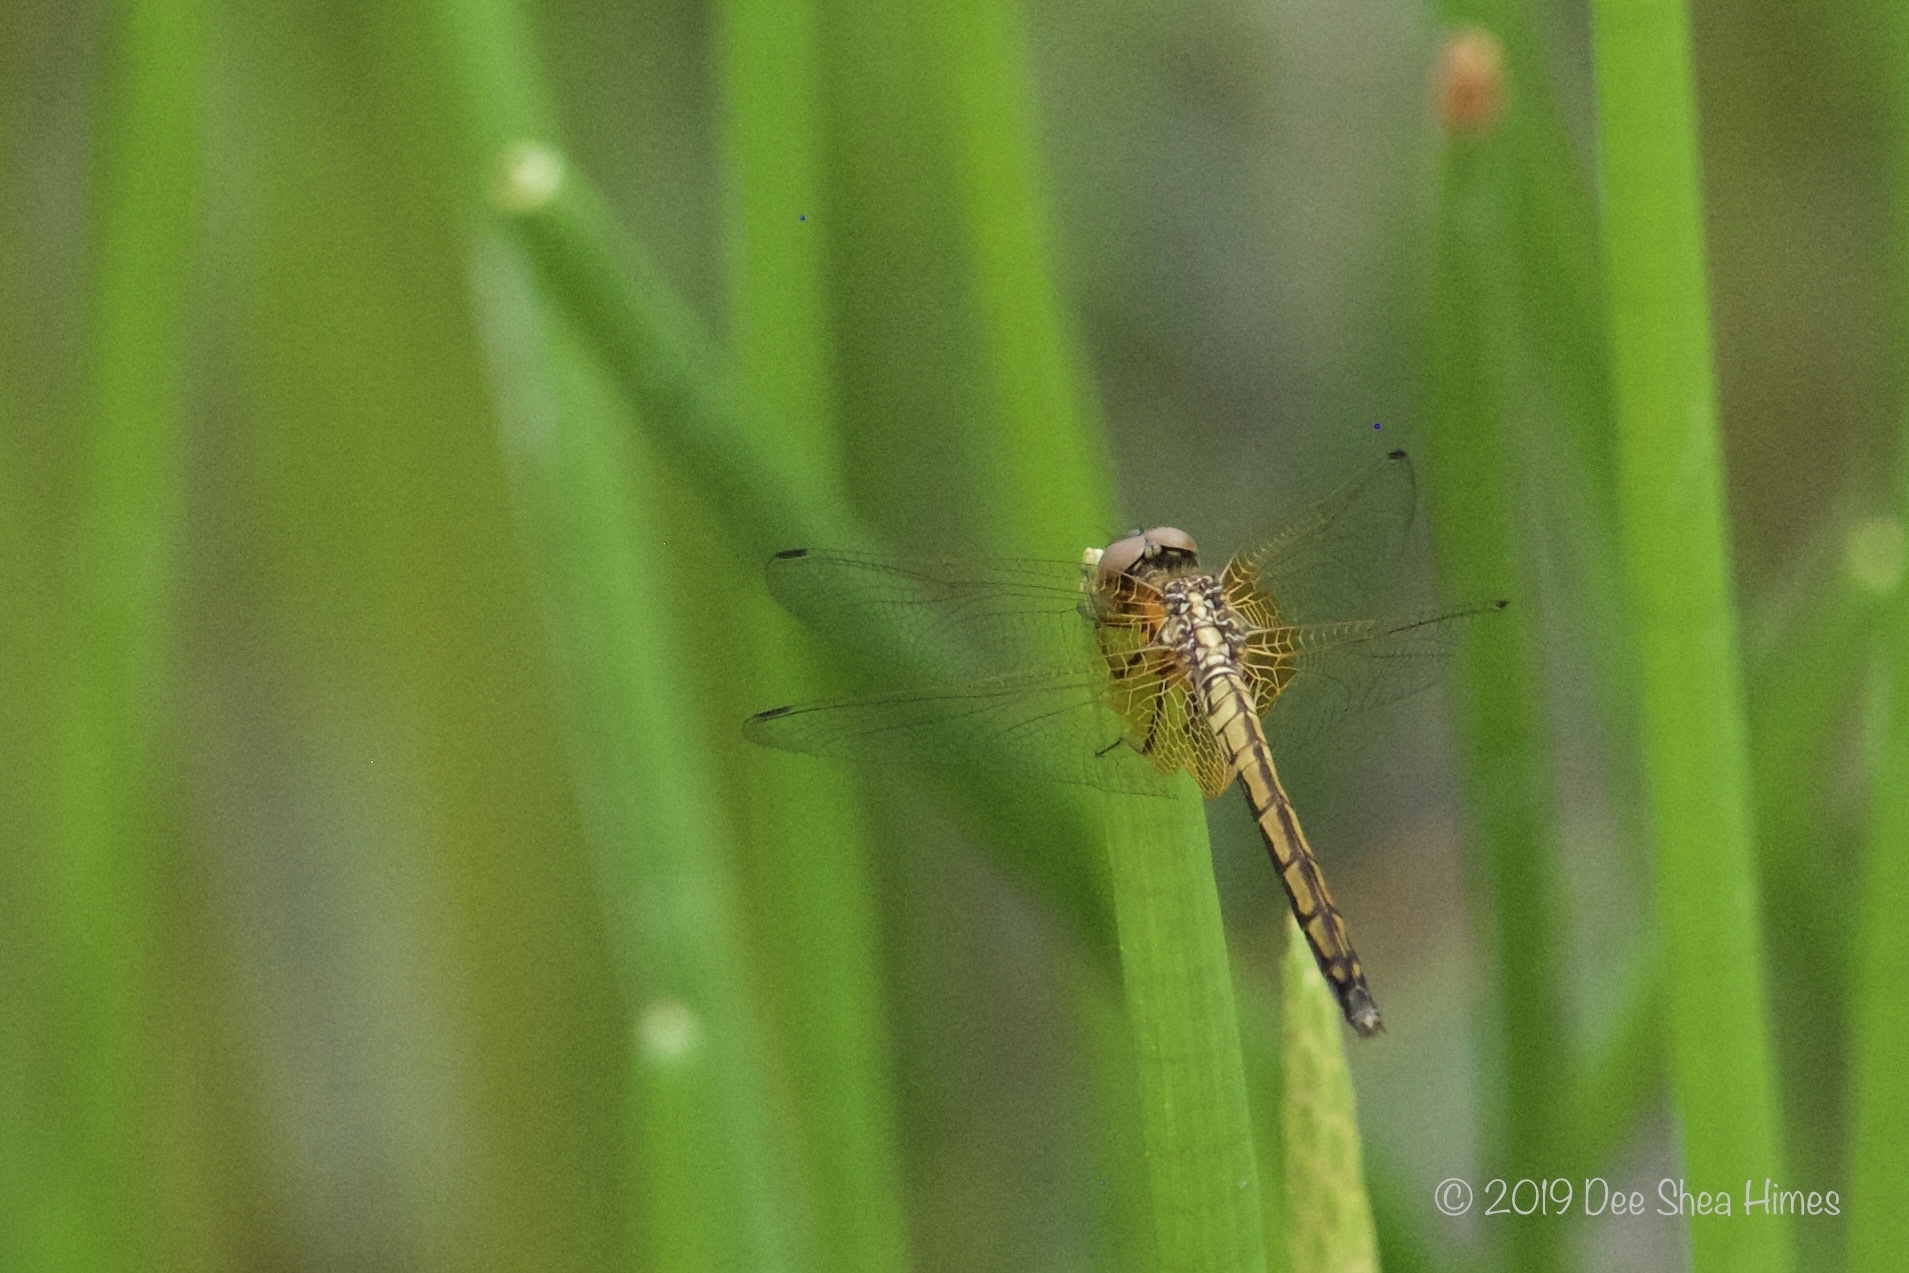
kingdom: Animalia
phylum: Arthropoda
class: Insecta
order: Odonata
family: Libellulidae
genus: Trithemis
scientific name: Trithemis aurora
